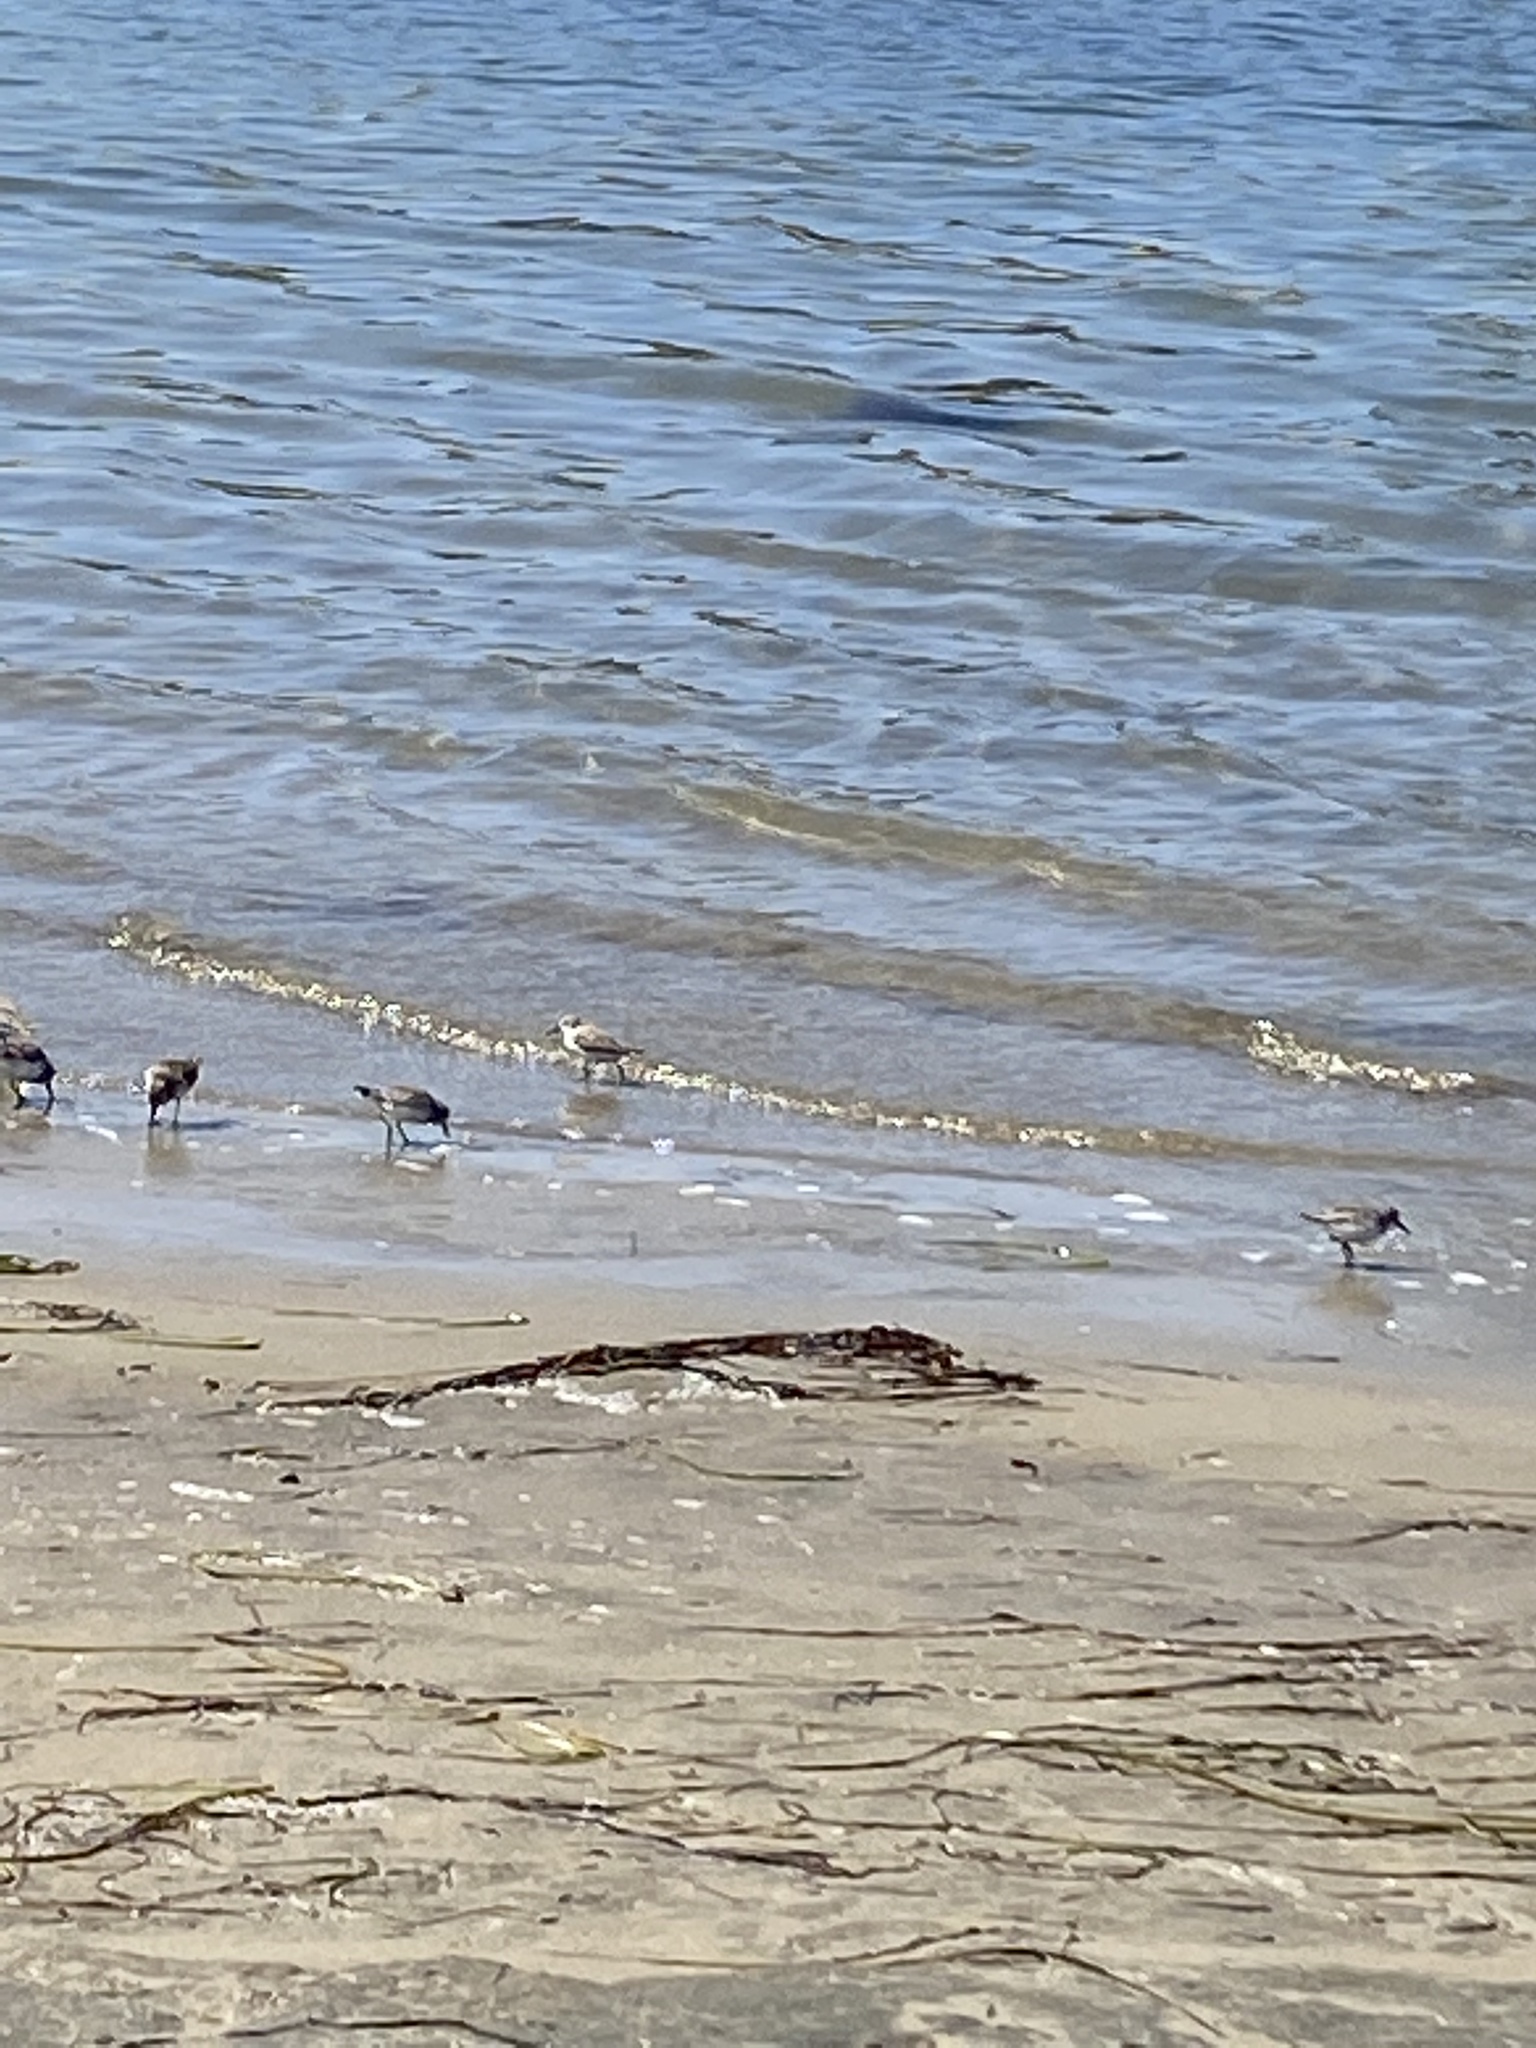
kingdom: Animalia
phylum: Chordata
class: Aves
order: Charadriiformes
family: Scolopacidae
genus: Calidris
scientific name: Calidris alba
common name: Sanderling
